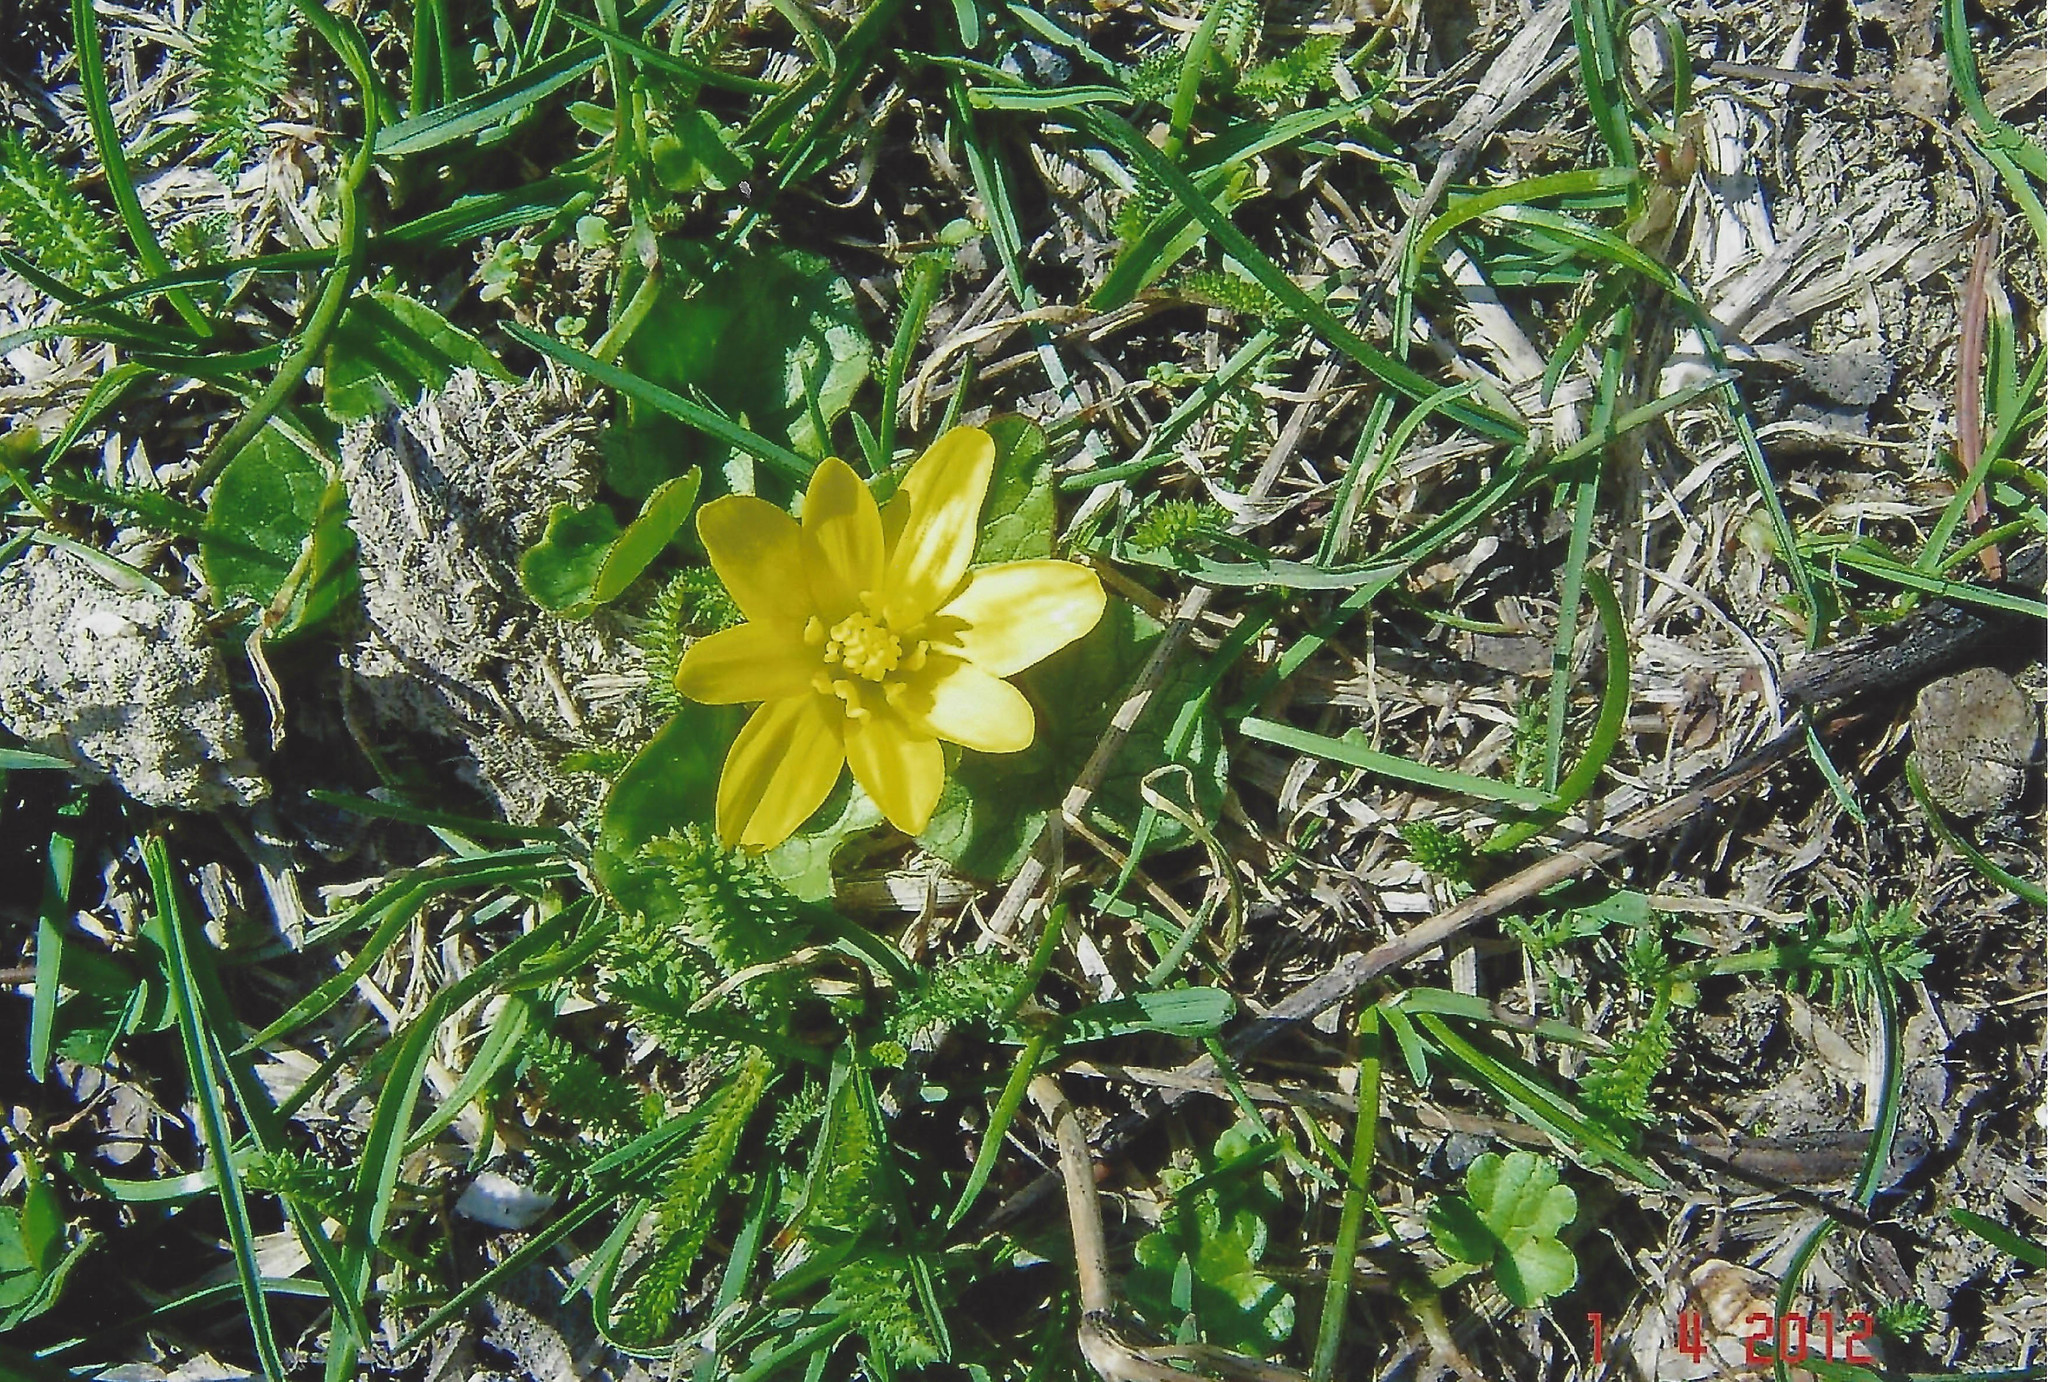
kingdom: Plantae
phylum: Tracheophyta
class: Magnoliopsida
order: Ranunculales
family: Ranunculaceae
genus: Ficaria
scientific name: Ficaria verna
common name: Lesser celandine
